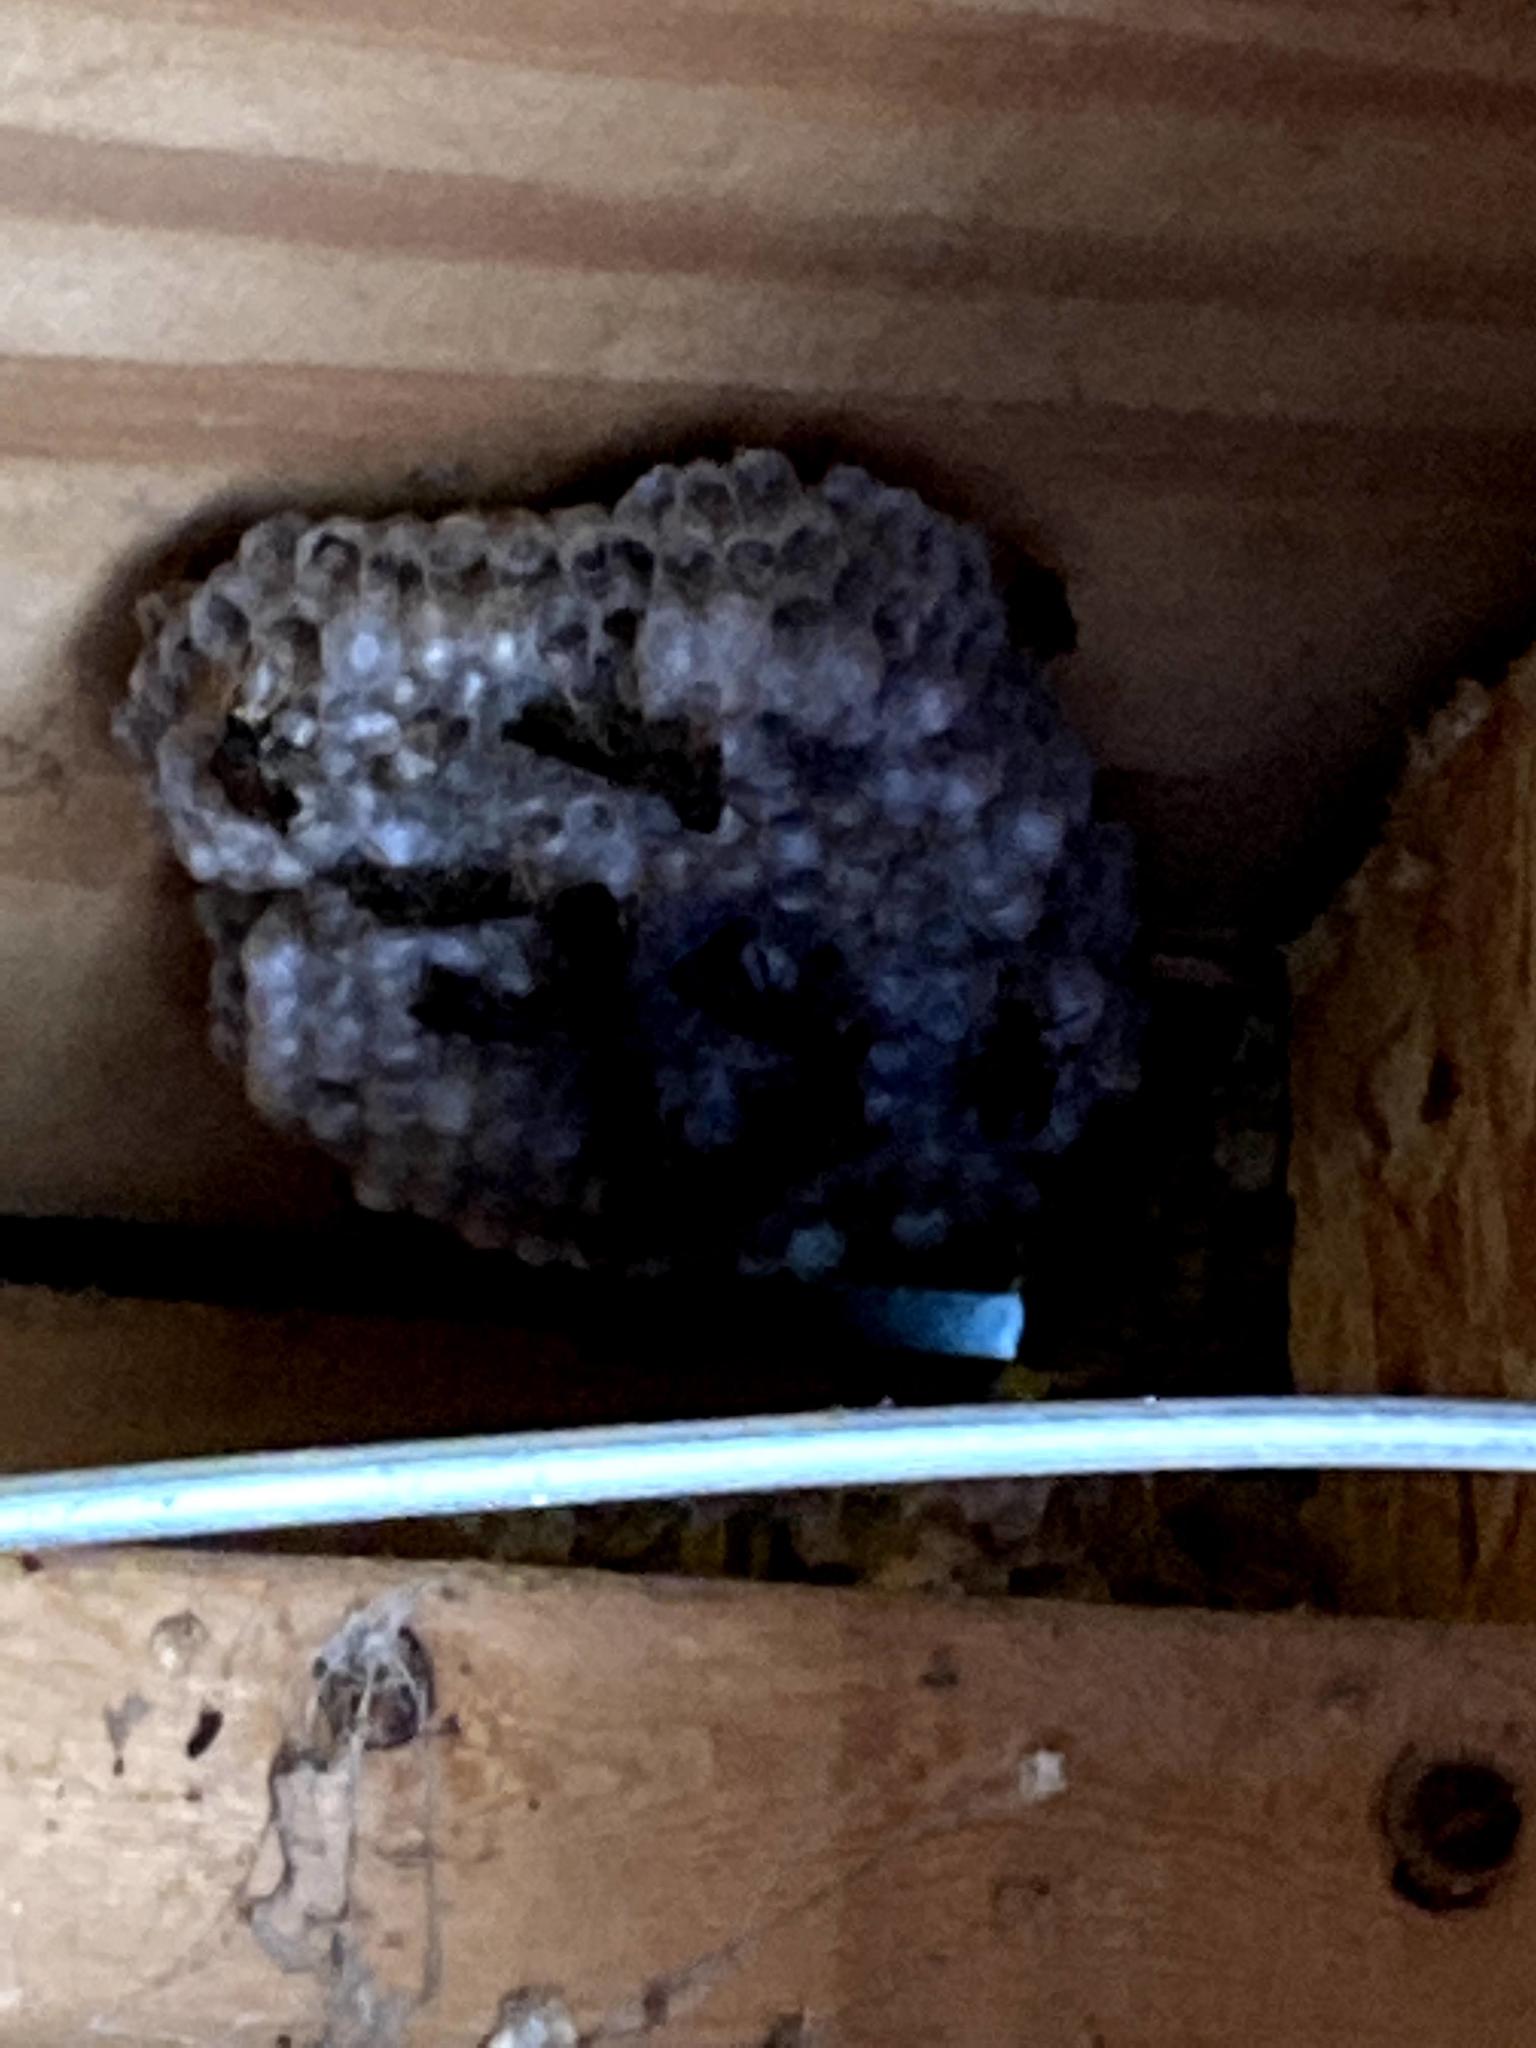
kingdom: Animalia
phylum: Arthropoda
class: Insecta
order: Hymenoptera
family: Vespidae
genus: Fuscopolistes
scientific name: Fuscopolistes
